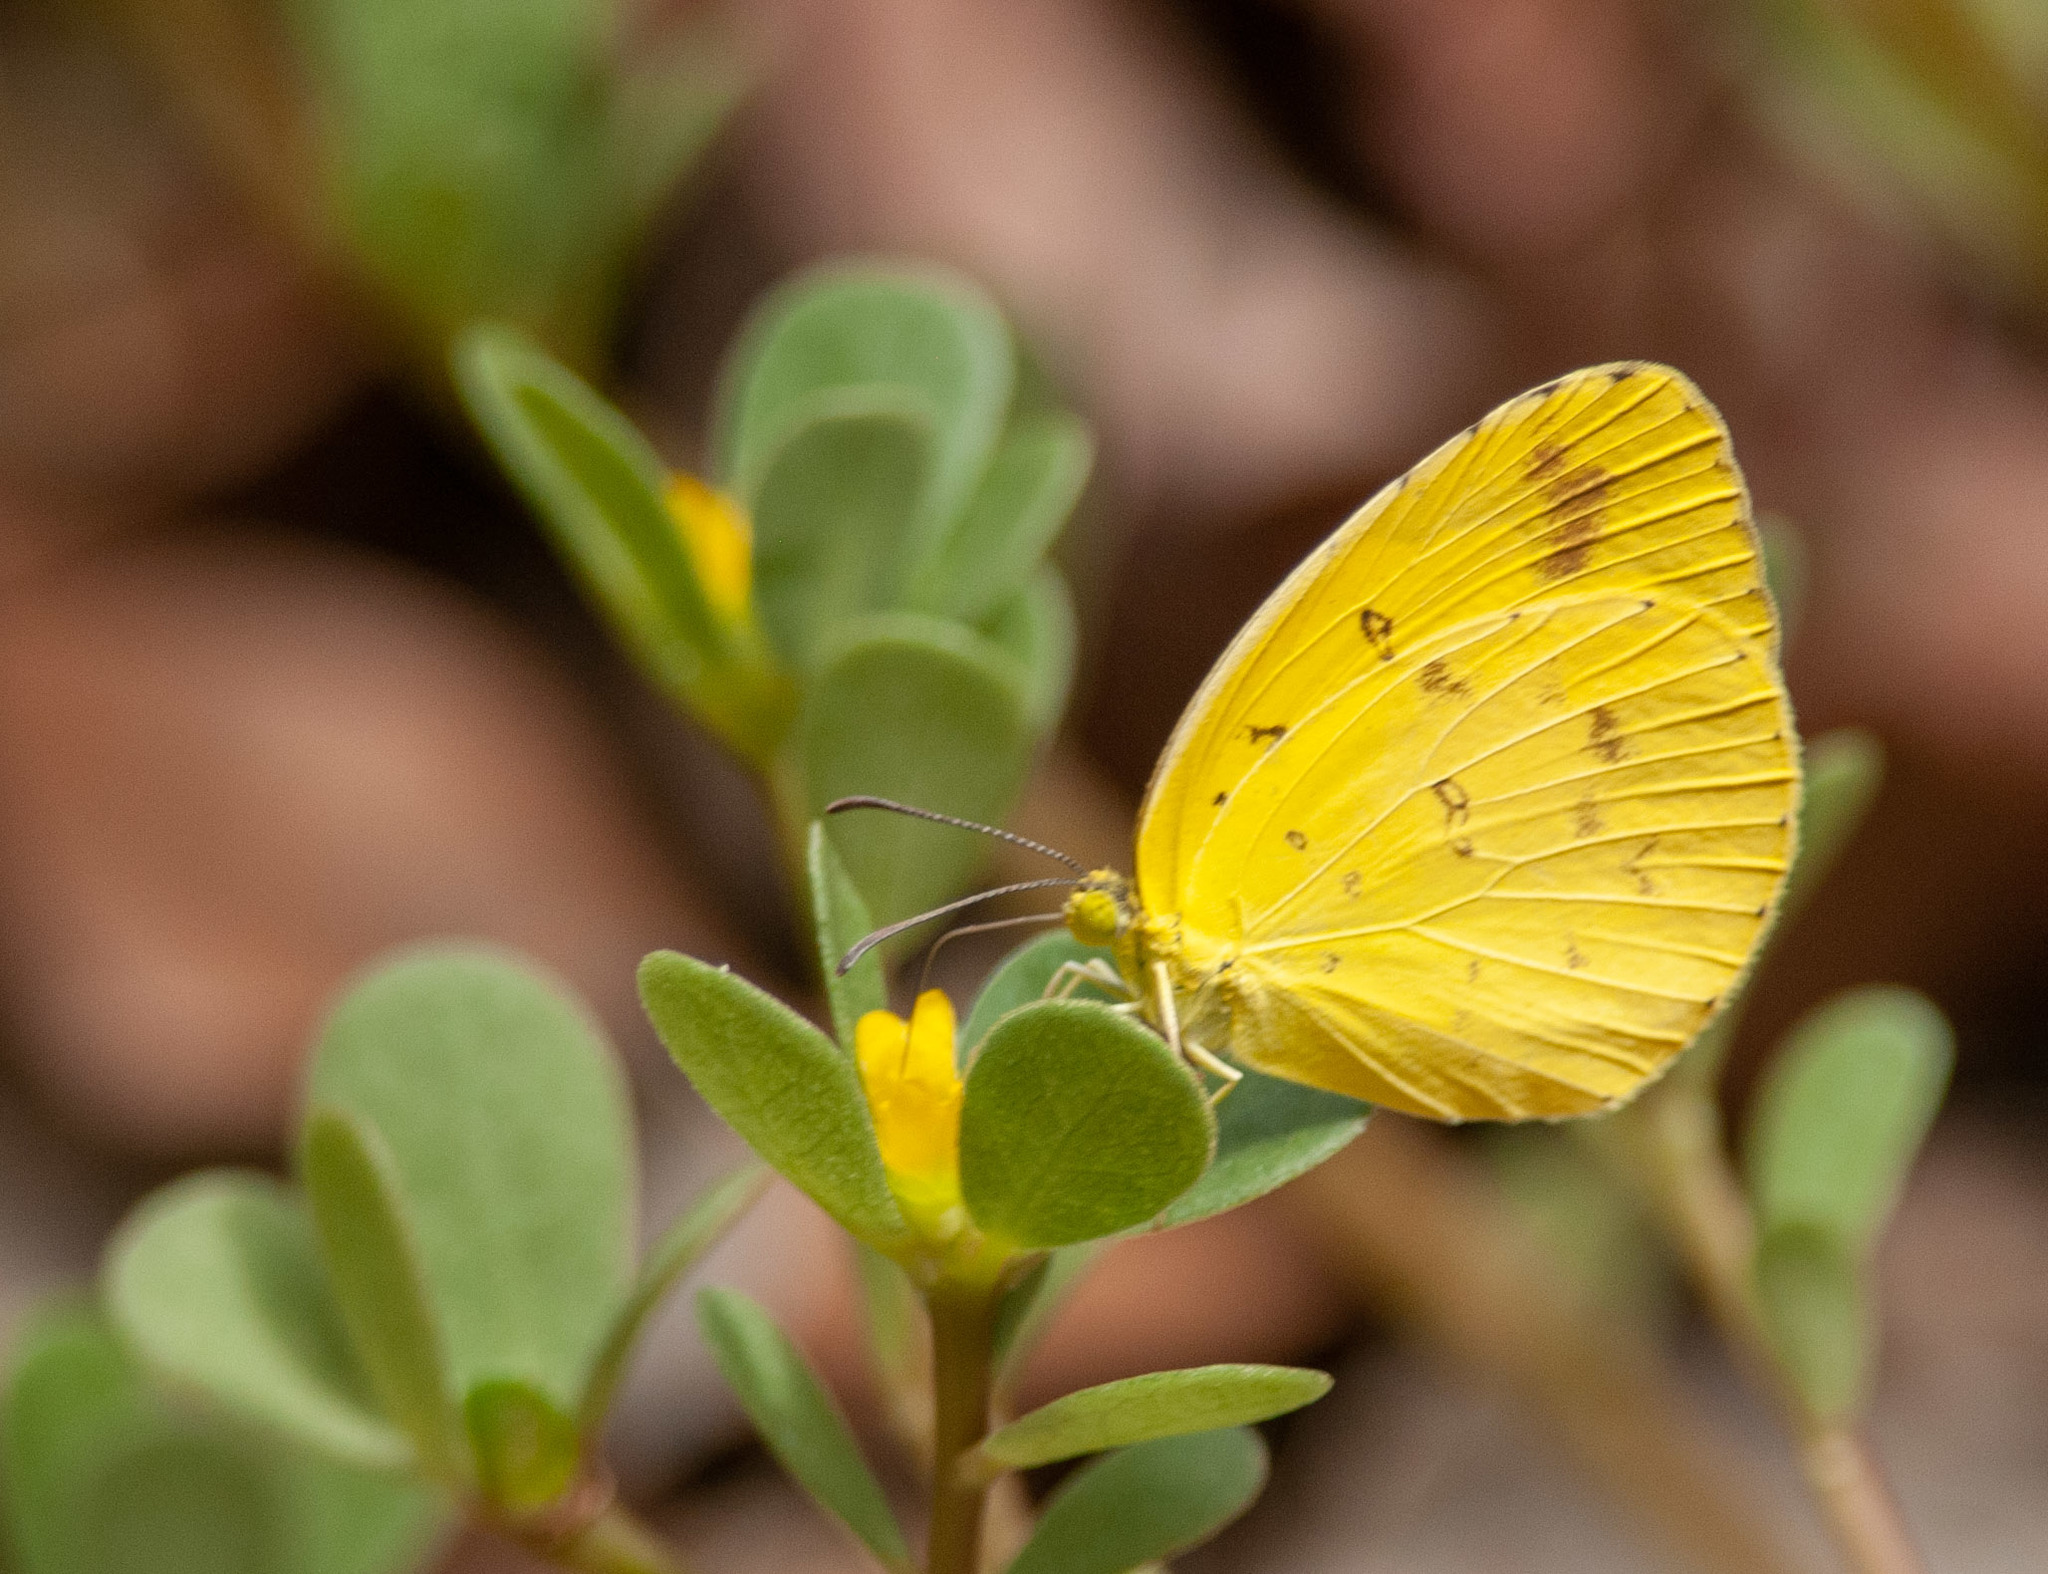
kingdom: Animalia
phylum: Arthropoda
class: Insecta
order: Lepidoptera
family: Pieridae
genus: Eurema
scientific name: Eurema hecabe
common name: Pale grass yellow
